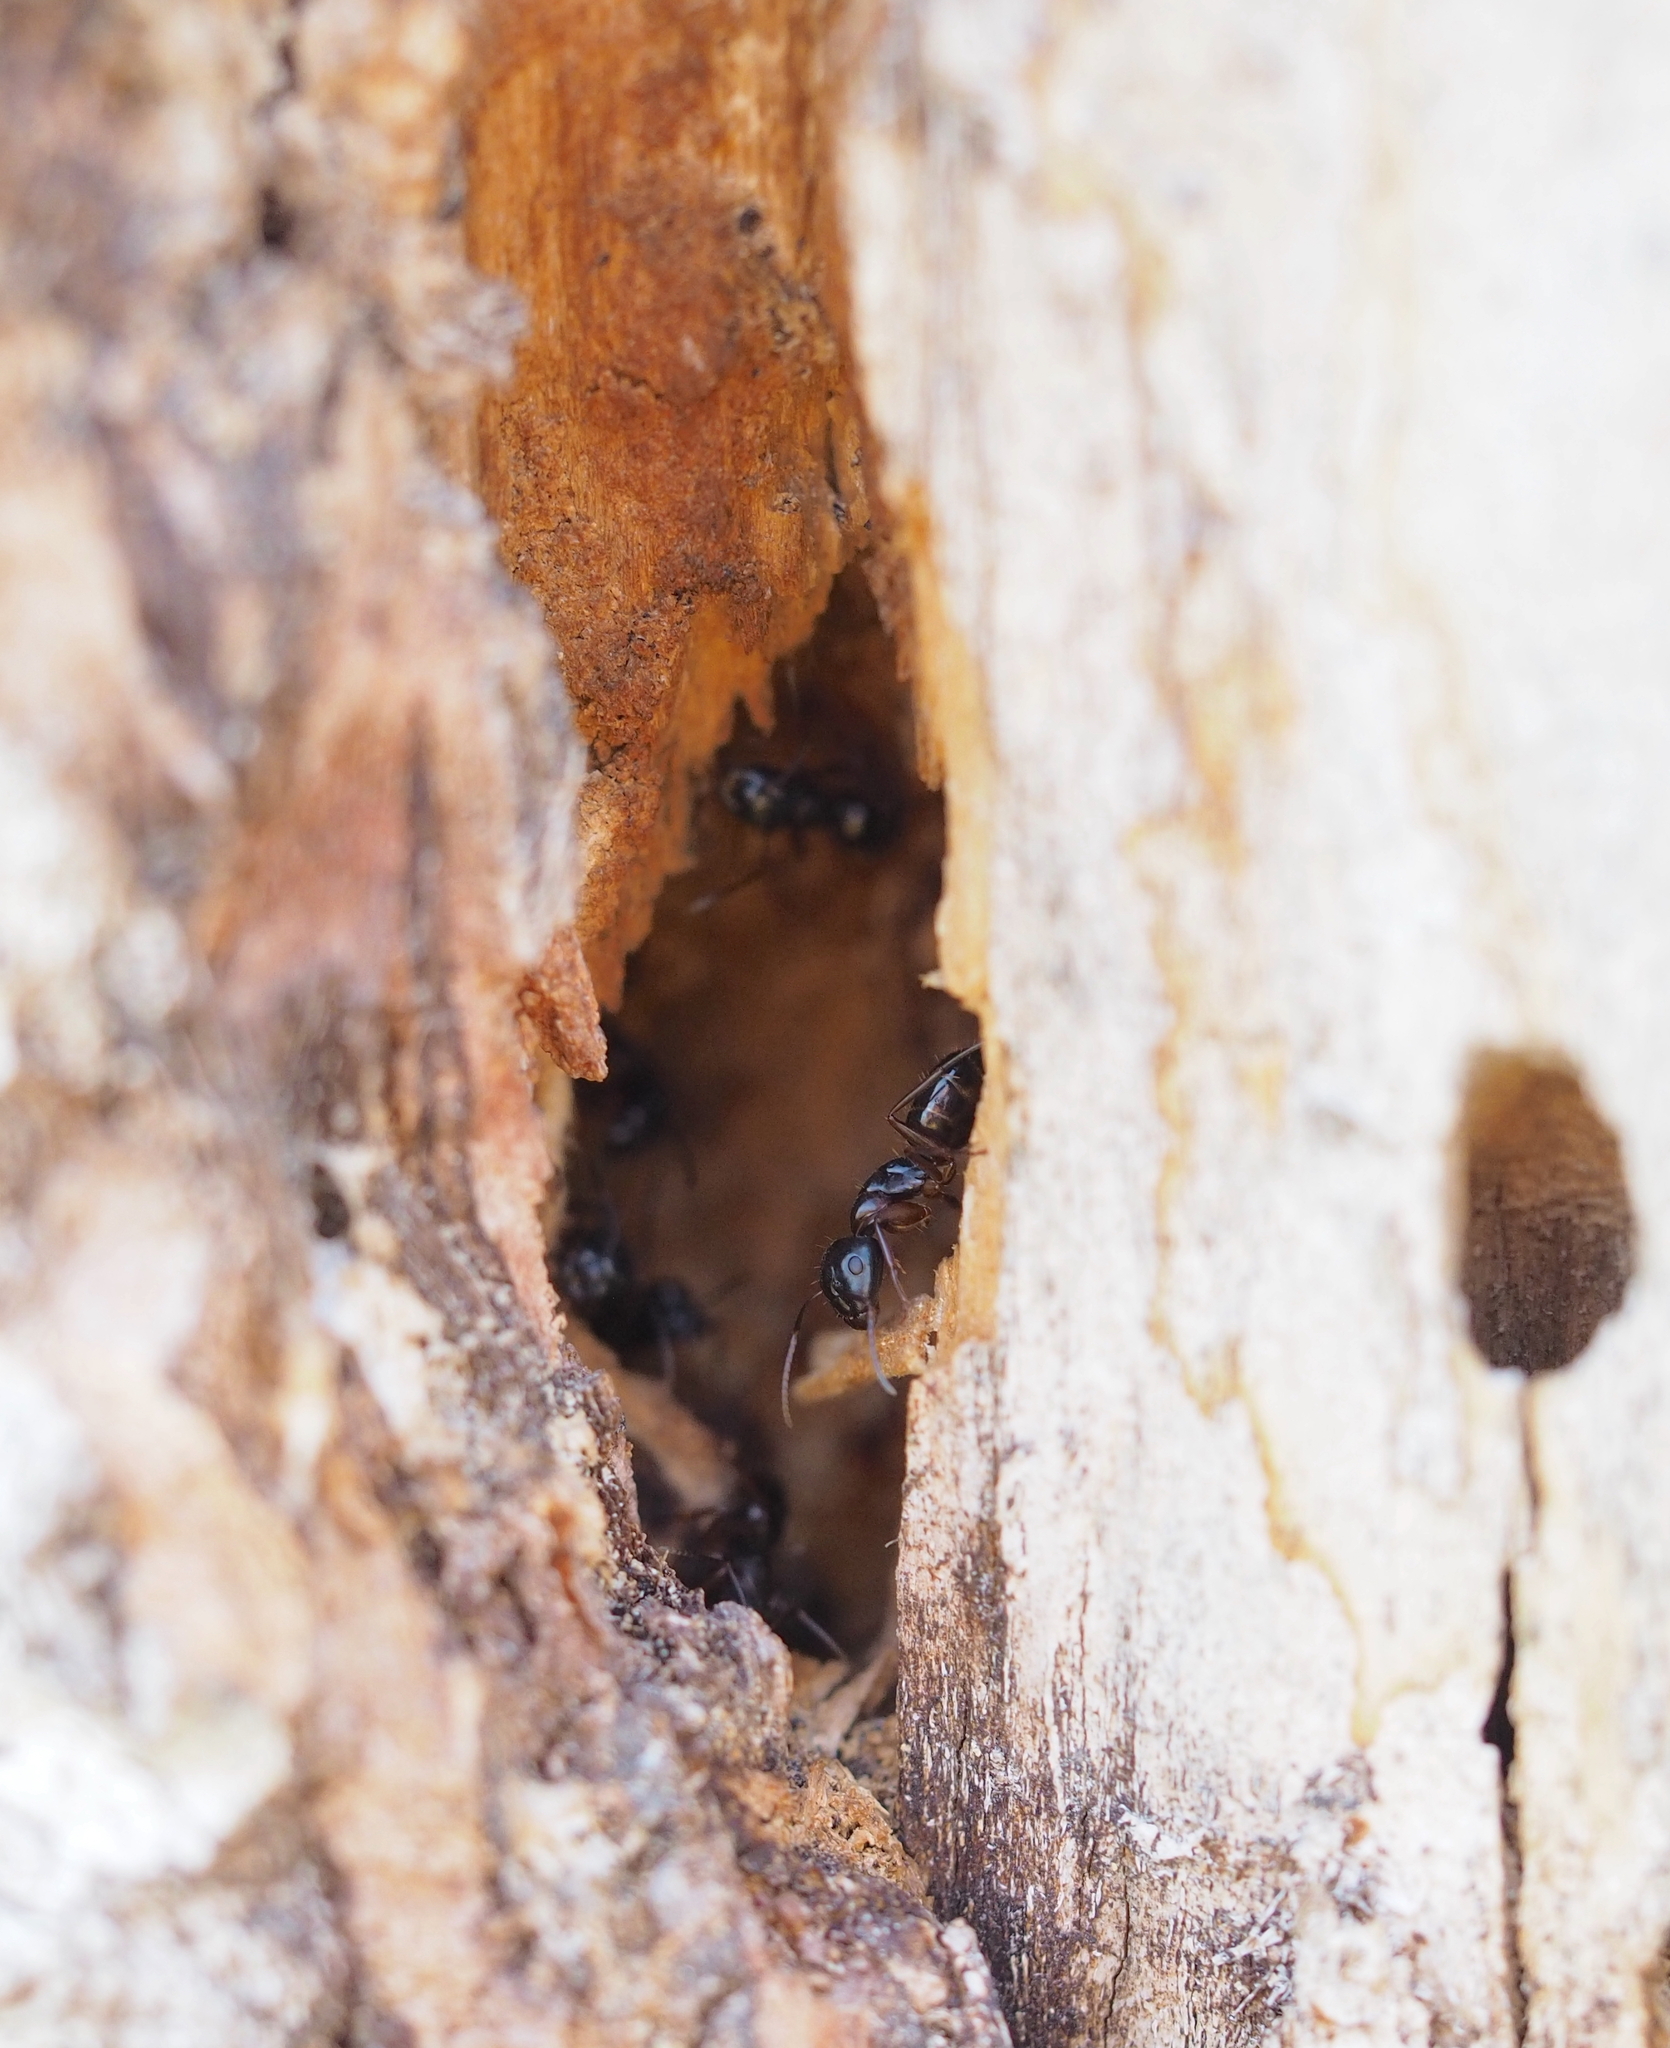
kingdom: Animalia
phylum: Arthropoda
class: Insecta
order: Hymenoptera
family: Formicidae
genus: Camponotus
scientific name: Camponotus fallax
